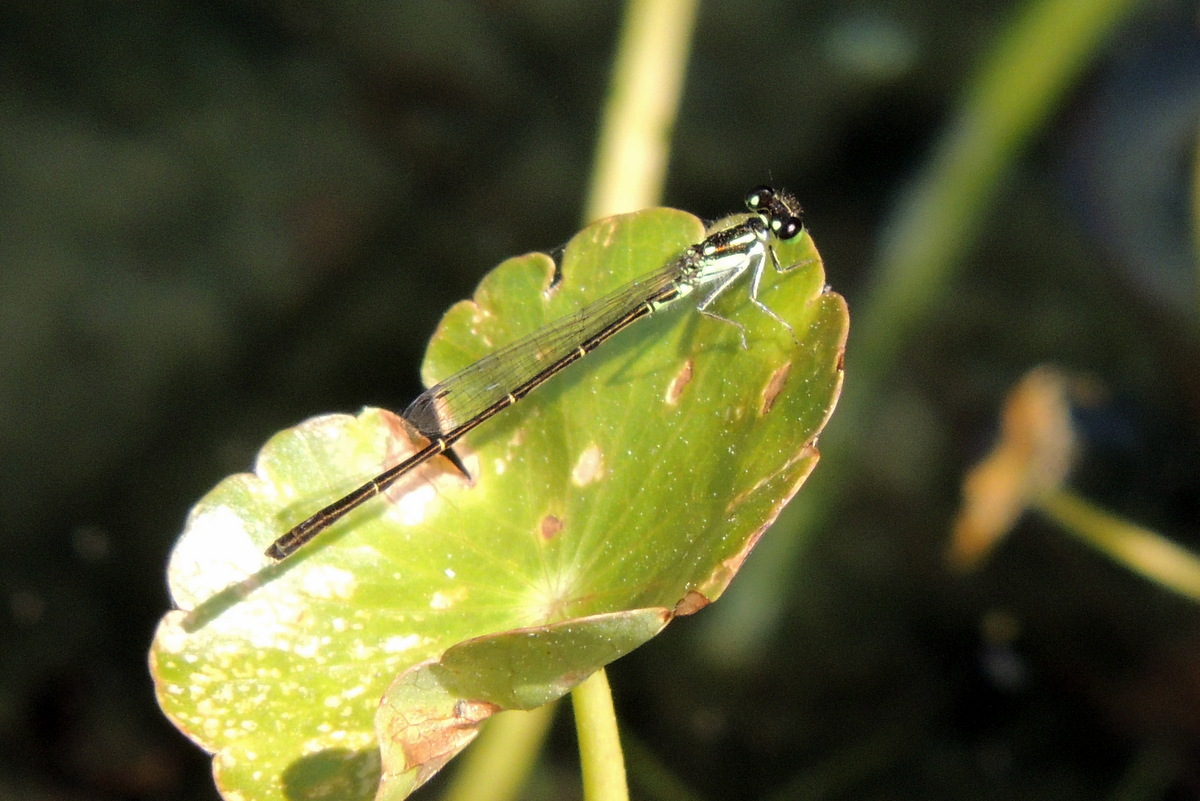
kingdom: Animalia
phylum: Arthropoda
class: Insecta
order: Odonata
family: Coenagrionidae
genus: Ischnura
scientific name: Ischnura posita
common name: Fragile forktail
